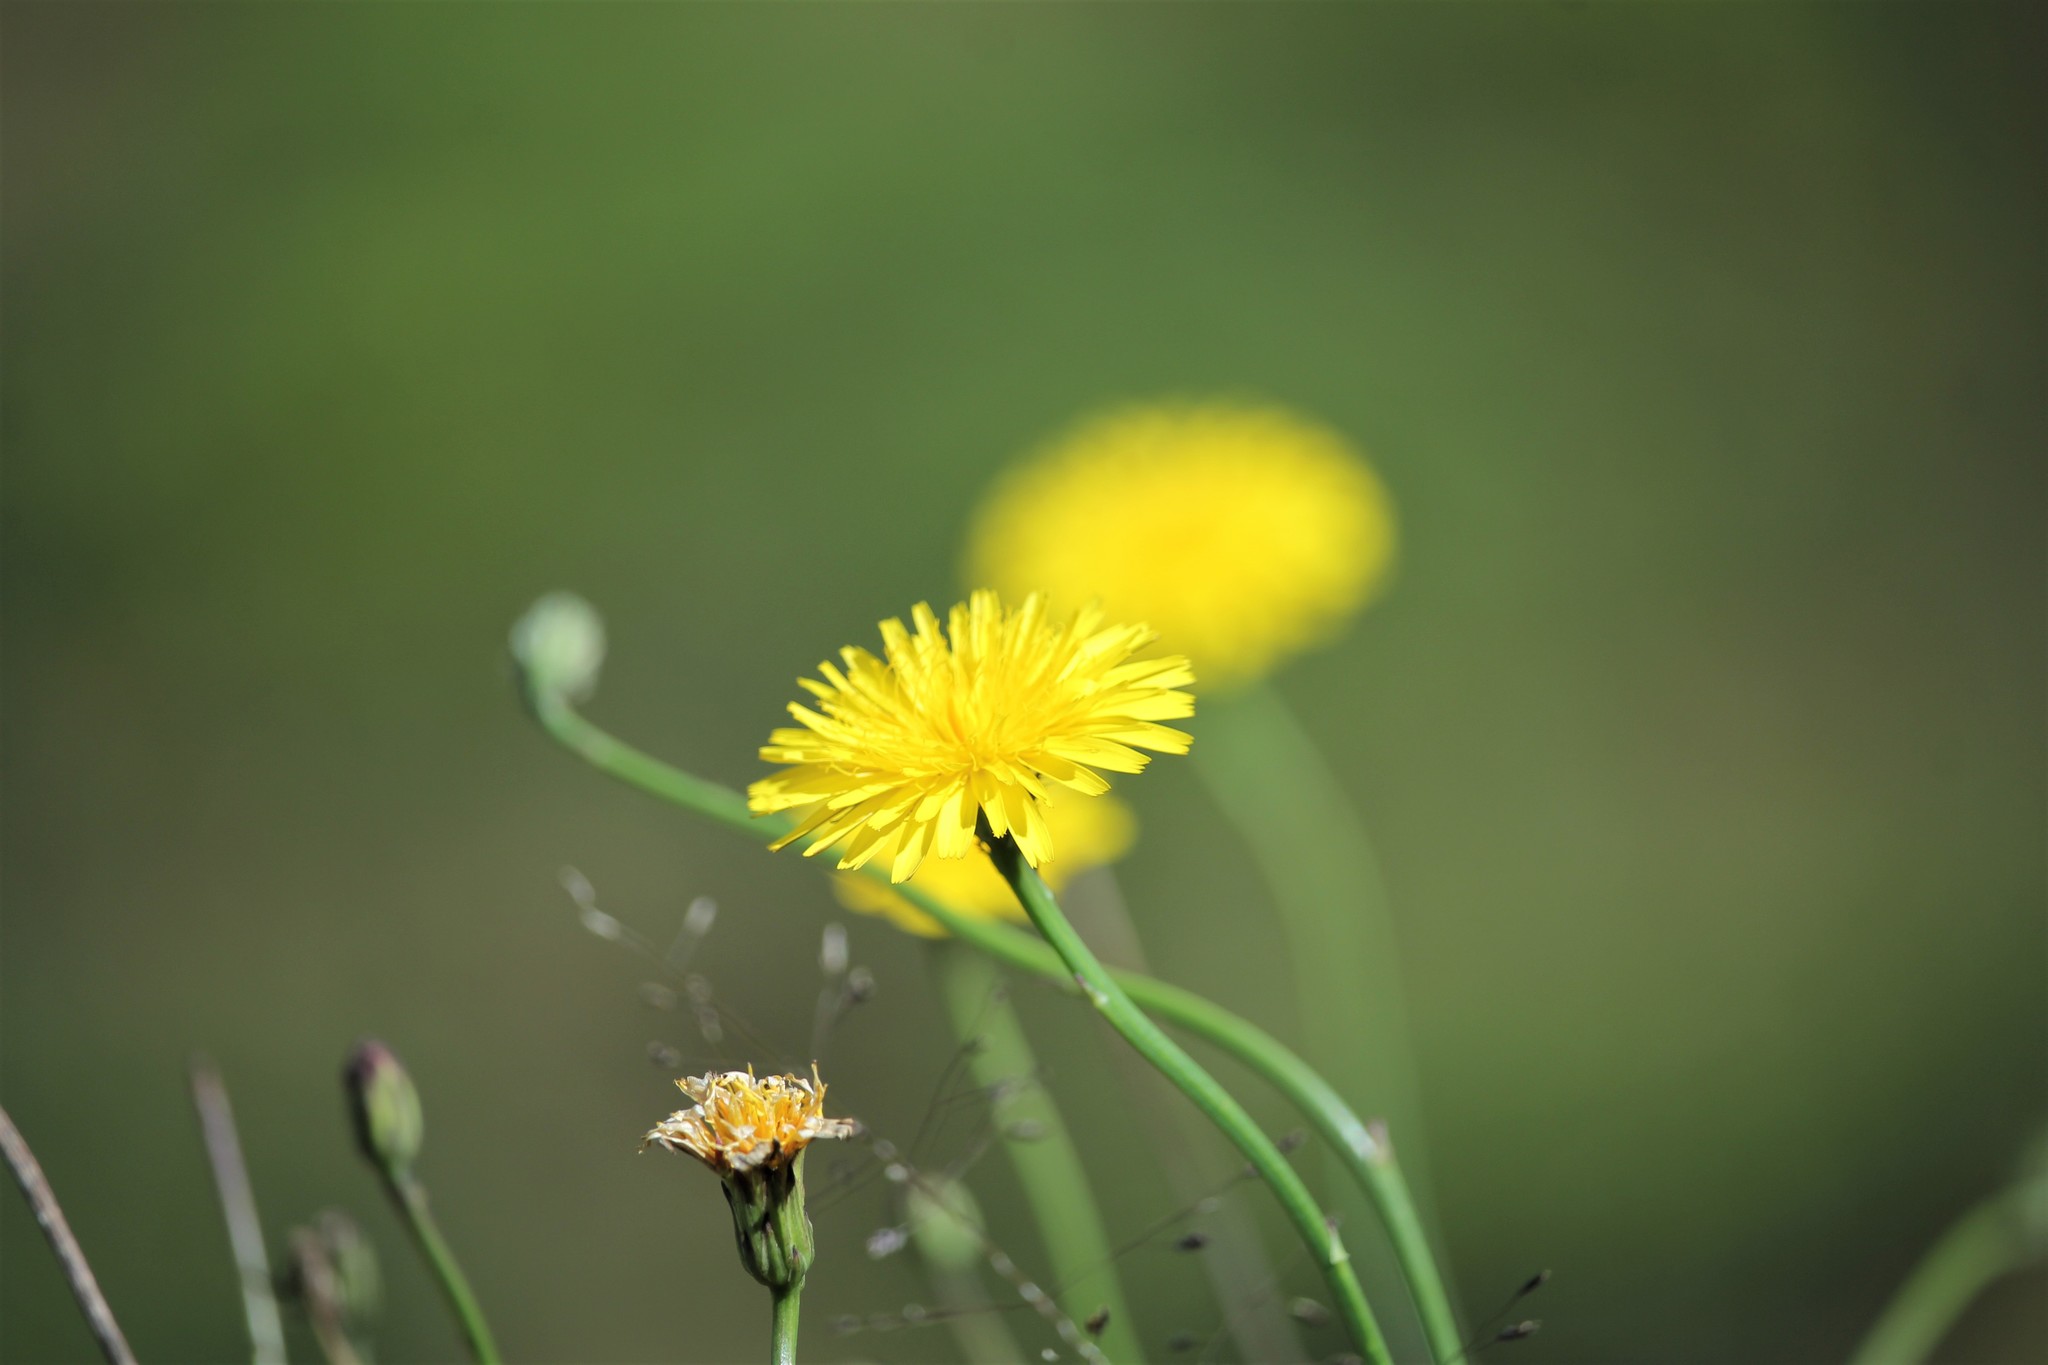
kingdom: Plantae
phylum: Tracheophyta
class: Magnoliopsida
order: Asterales
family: Asteraceae
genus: Taraxacum
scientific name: Taraxacum javanicum
